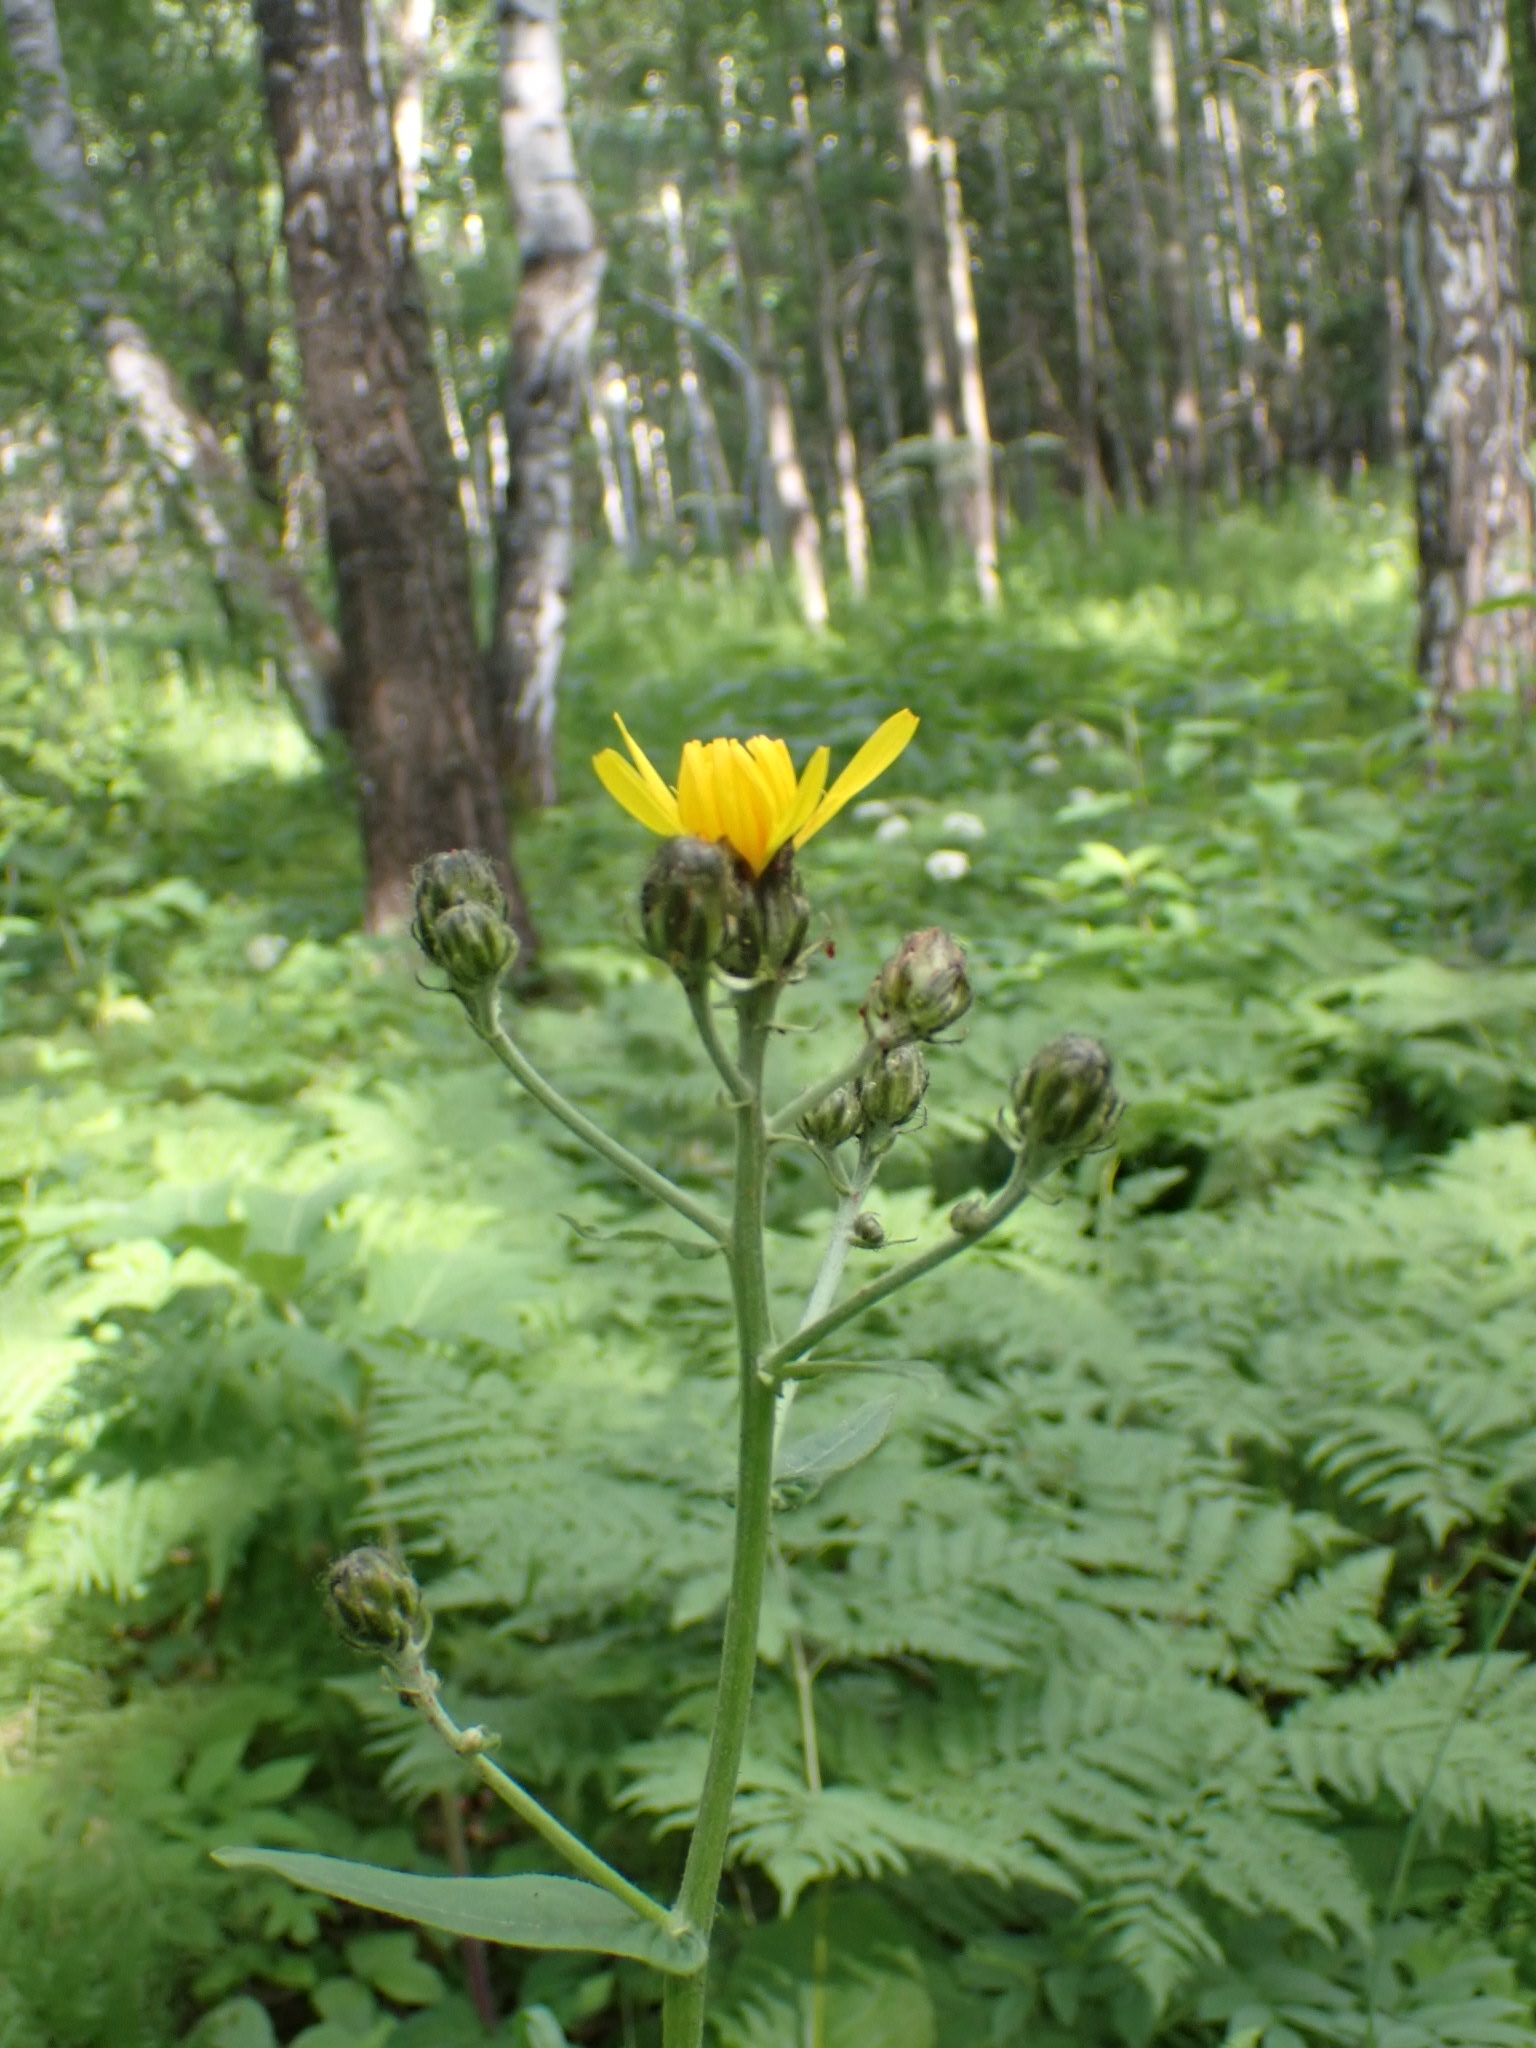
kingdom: Plantae
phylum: Tracheophyta
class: Magnoliopsida
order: Asterales
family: Asteraceae
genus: Crepis
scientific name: Crepis sibirica
